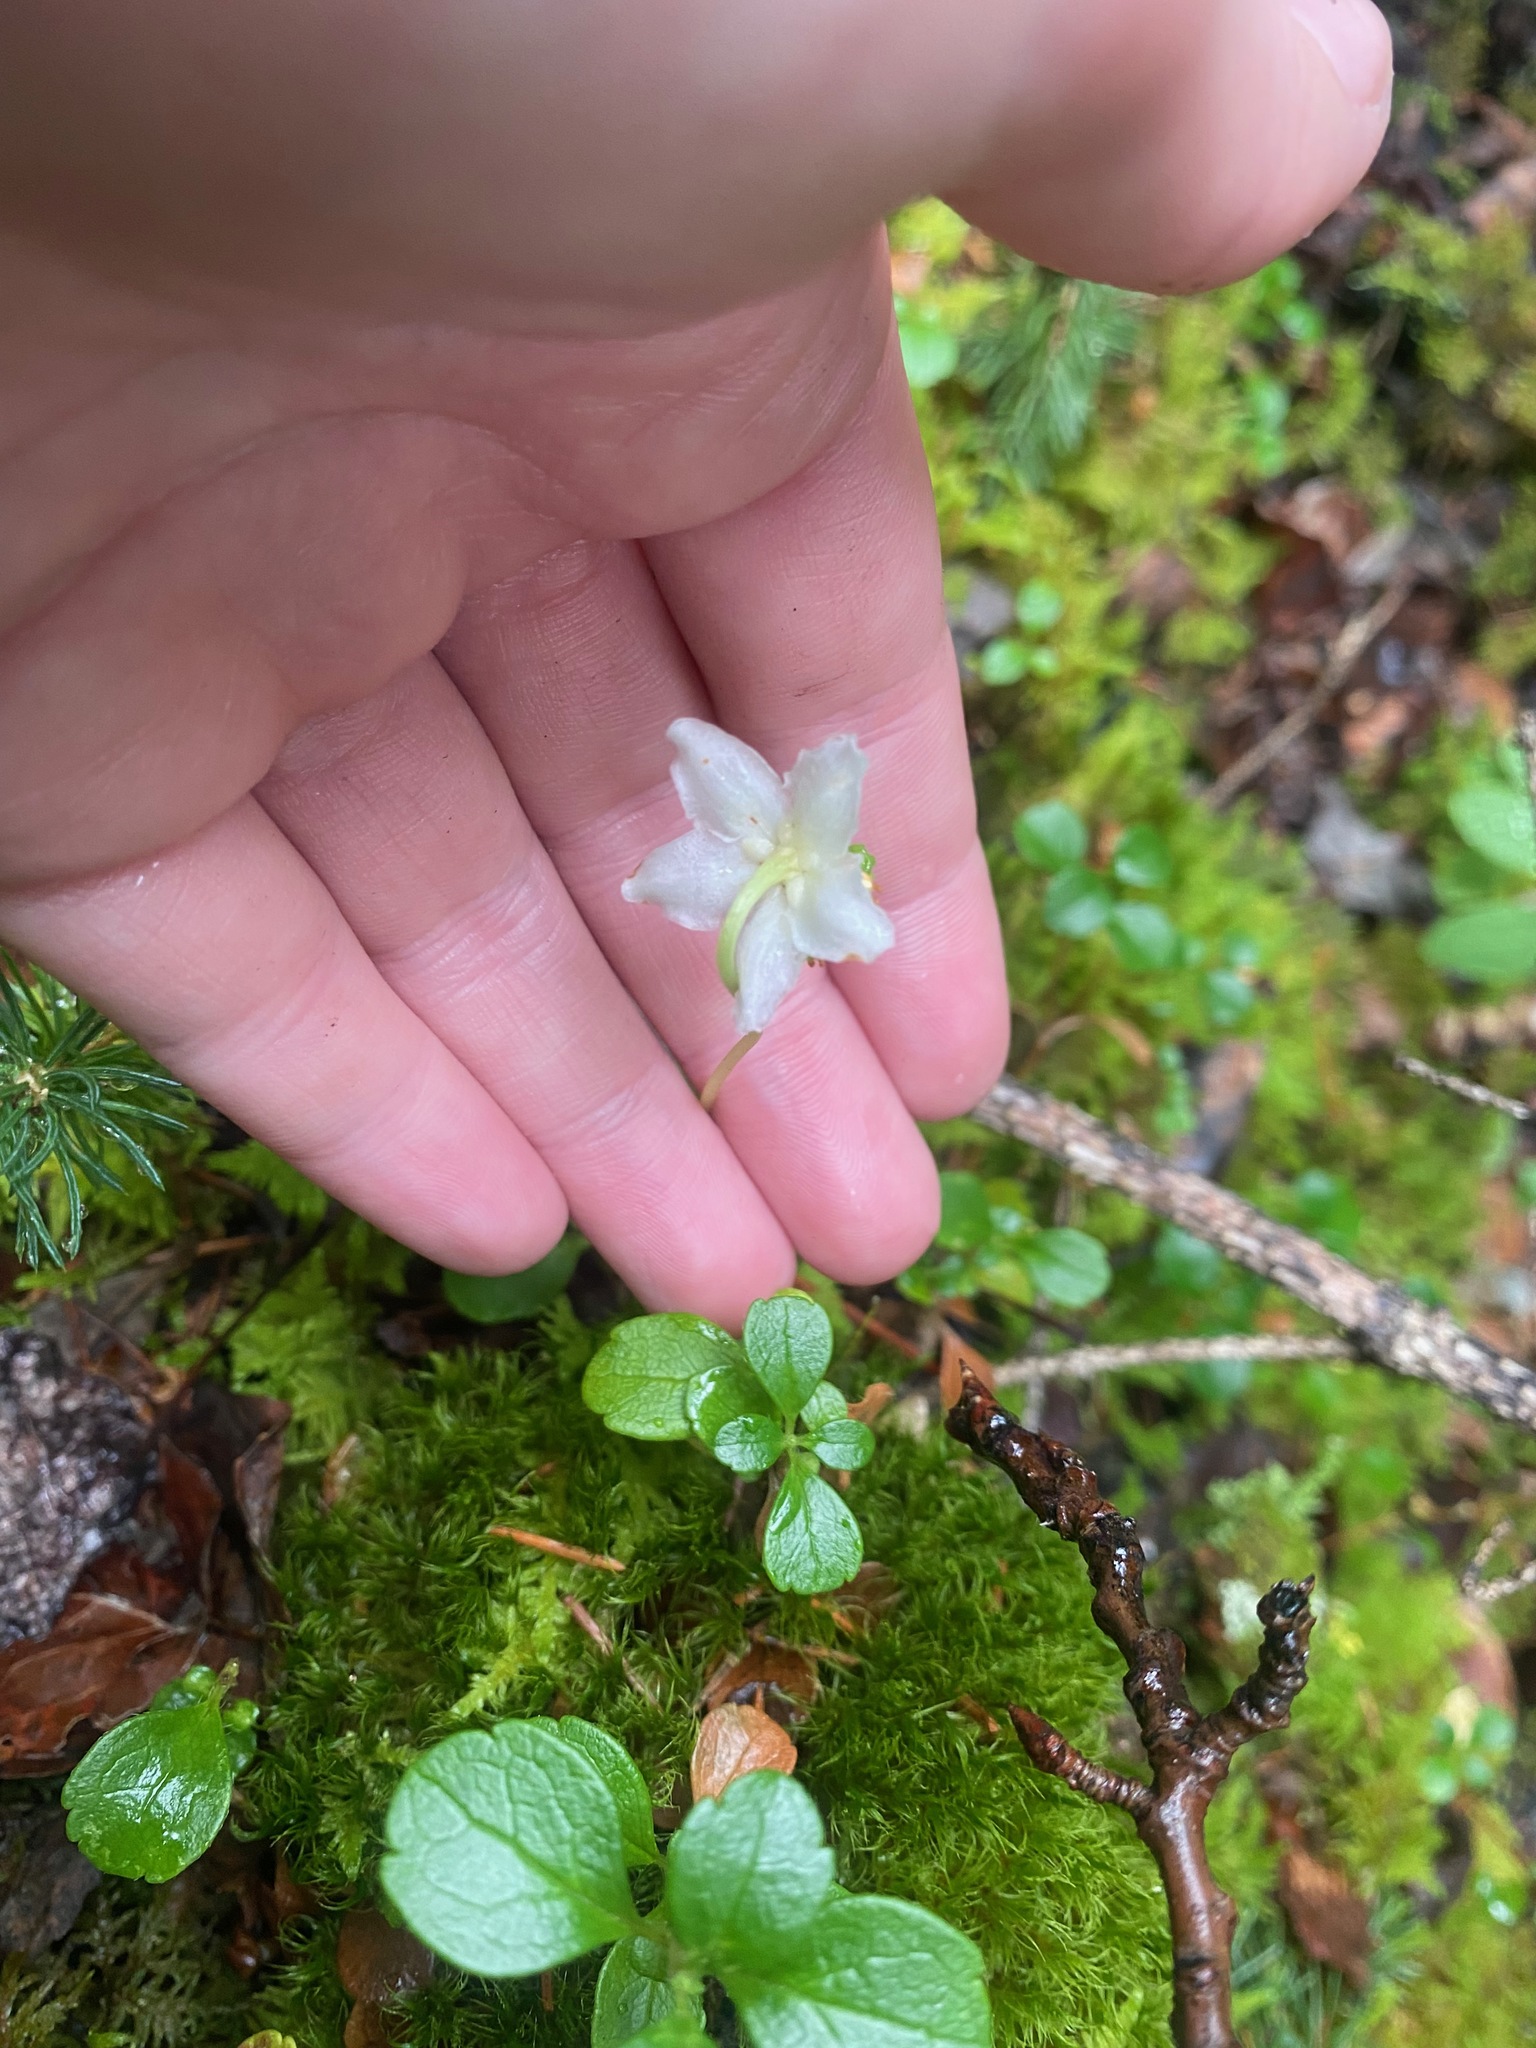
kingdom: Plantae
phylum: Tracheophyta
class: Magnoliopsida
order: Ericales
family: Ericaceae
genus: Moneses
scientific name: Moneses uniflora
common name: One-flowered wintergreen
